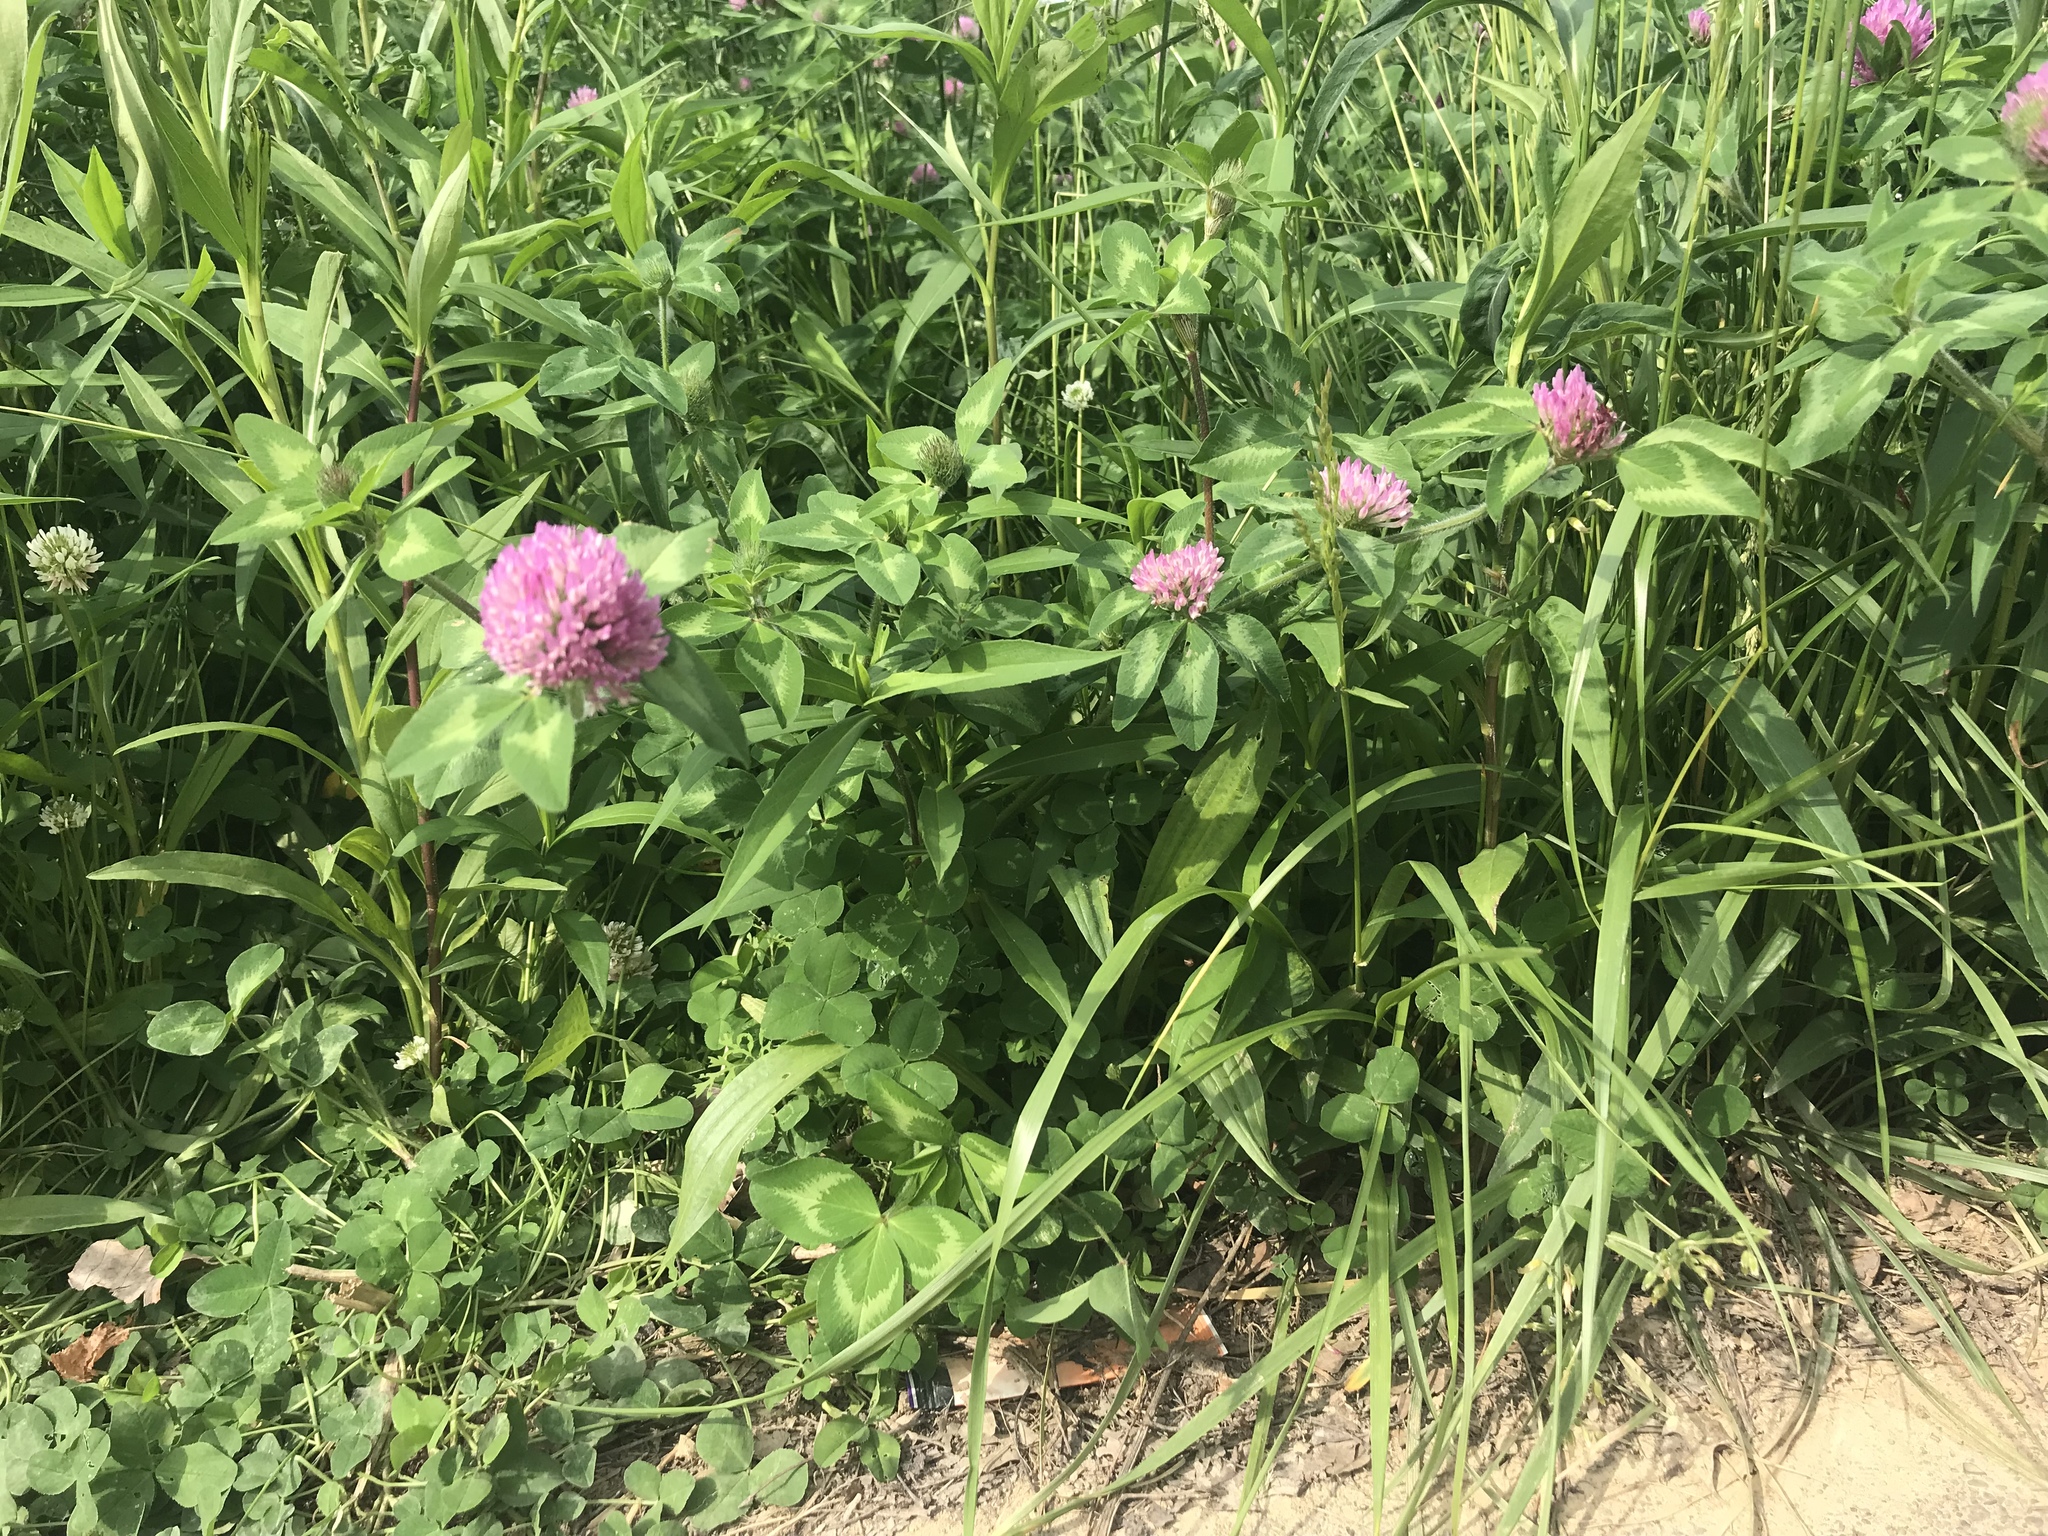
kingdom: Plantae
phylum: Tracheophyta
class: Magnoliopsida
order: Fabales
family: Fabaceae
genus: Trifolium
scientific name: Trifolium pratense
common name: Red clover
